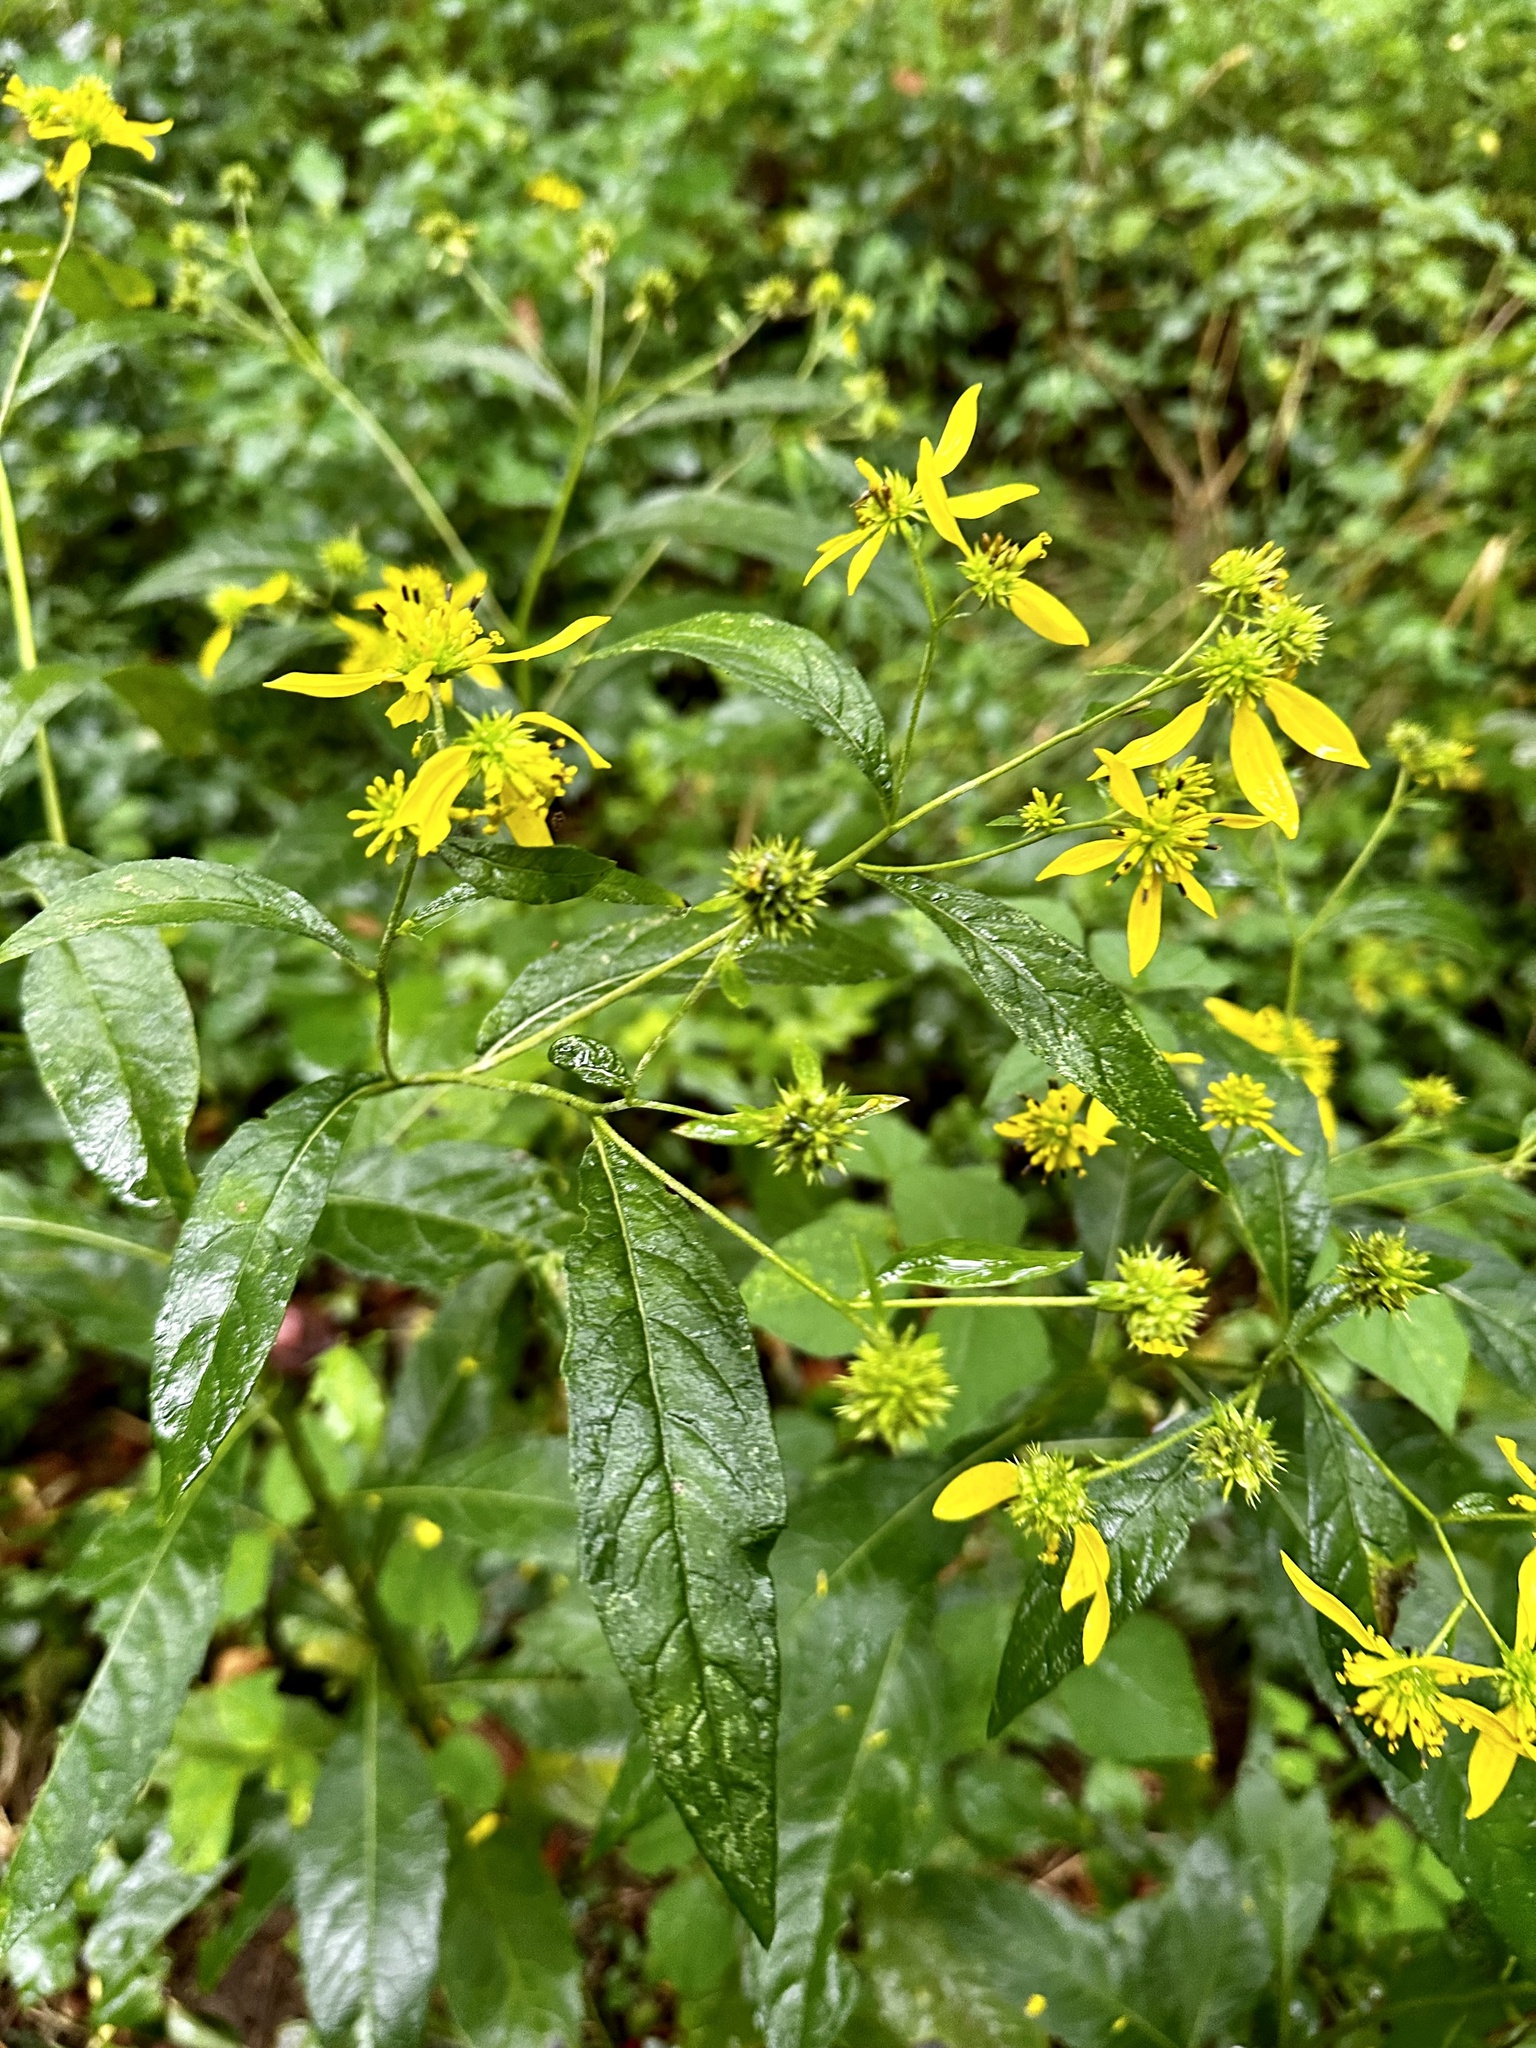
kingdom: Plantae
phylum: Tracheophyta
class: Magnoliopsida
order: Asterales
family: Asteraceae
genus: Verbesina
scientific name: Verbesina alternifolia
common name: Wingstem
